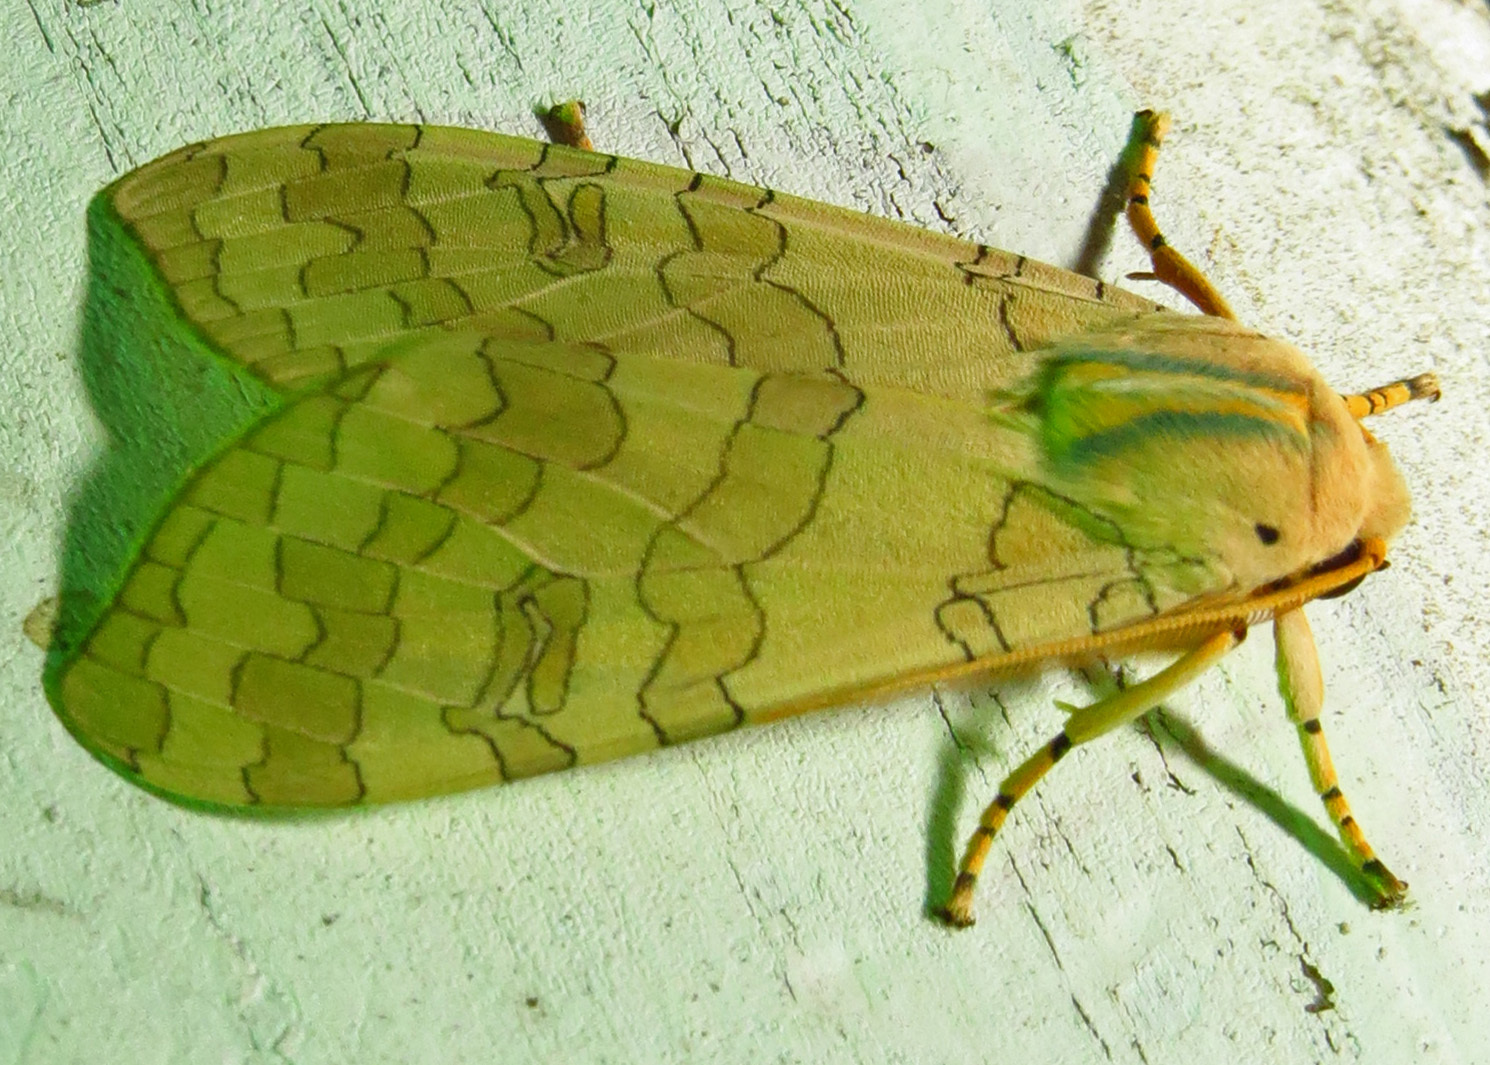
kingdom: Animalia
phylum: Arthropoda
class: Insecta
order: Lepidoptera
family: Erebidae
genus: Halysidota
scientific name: Halysidota
